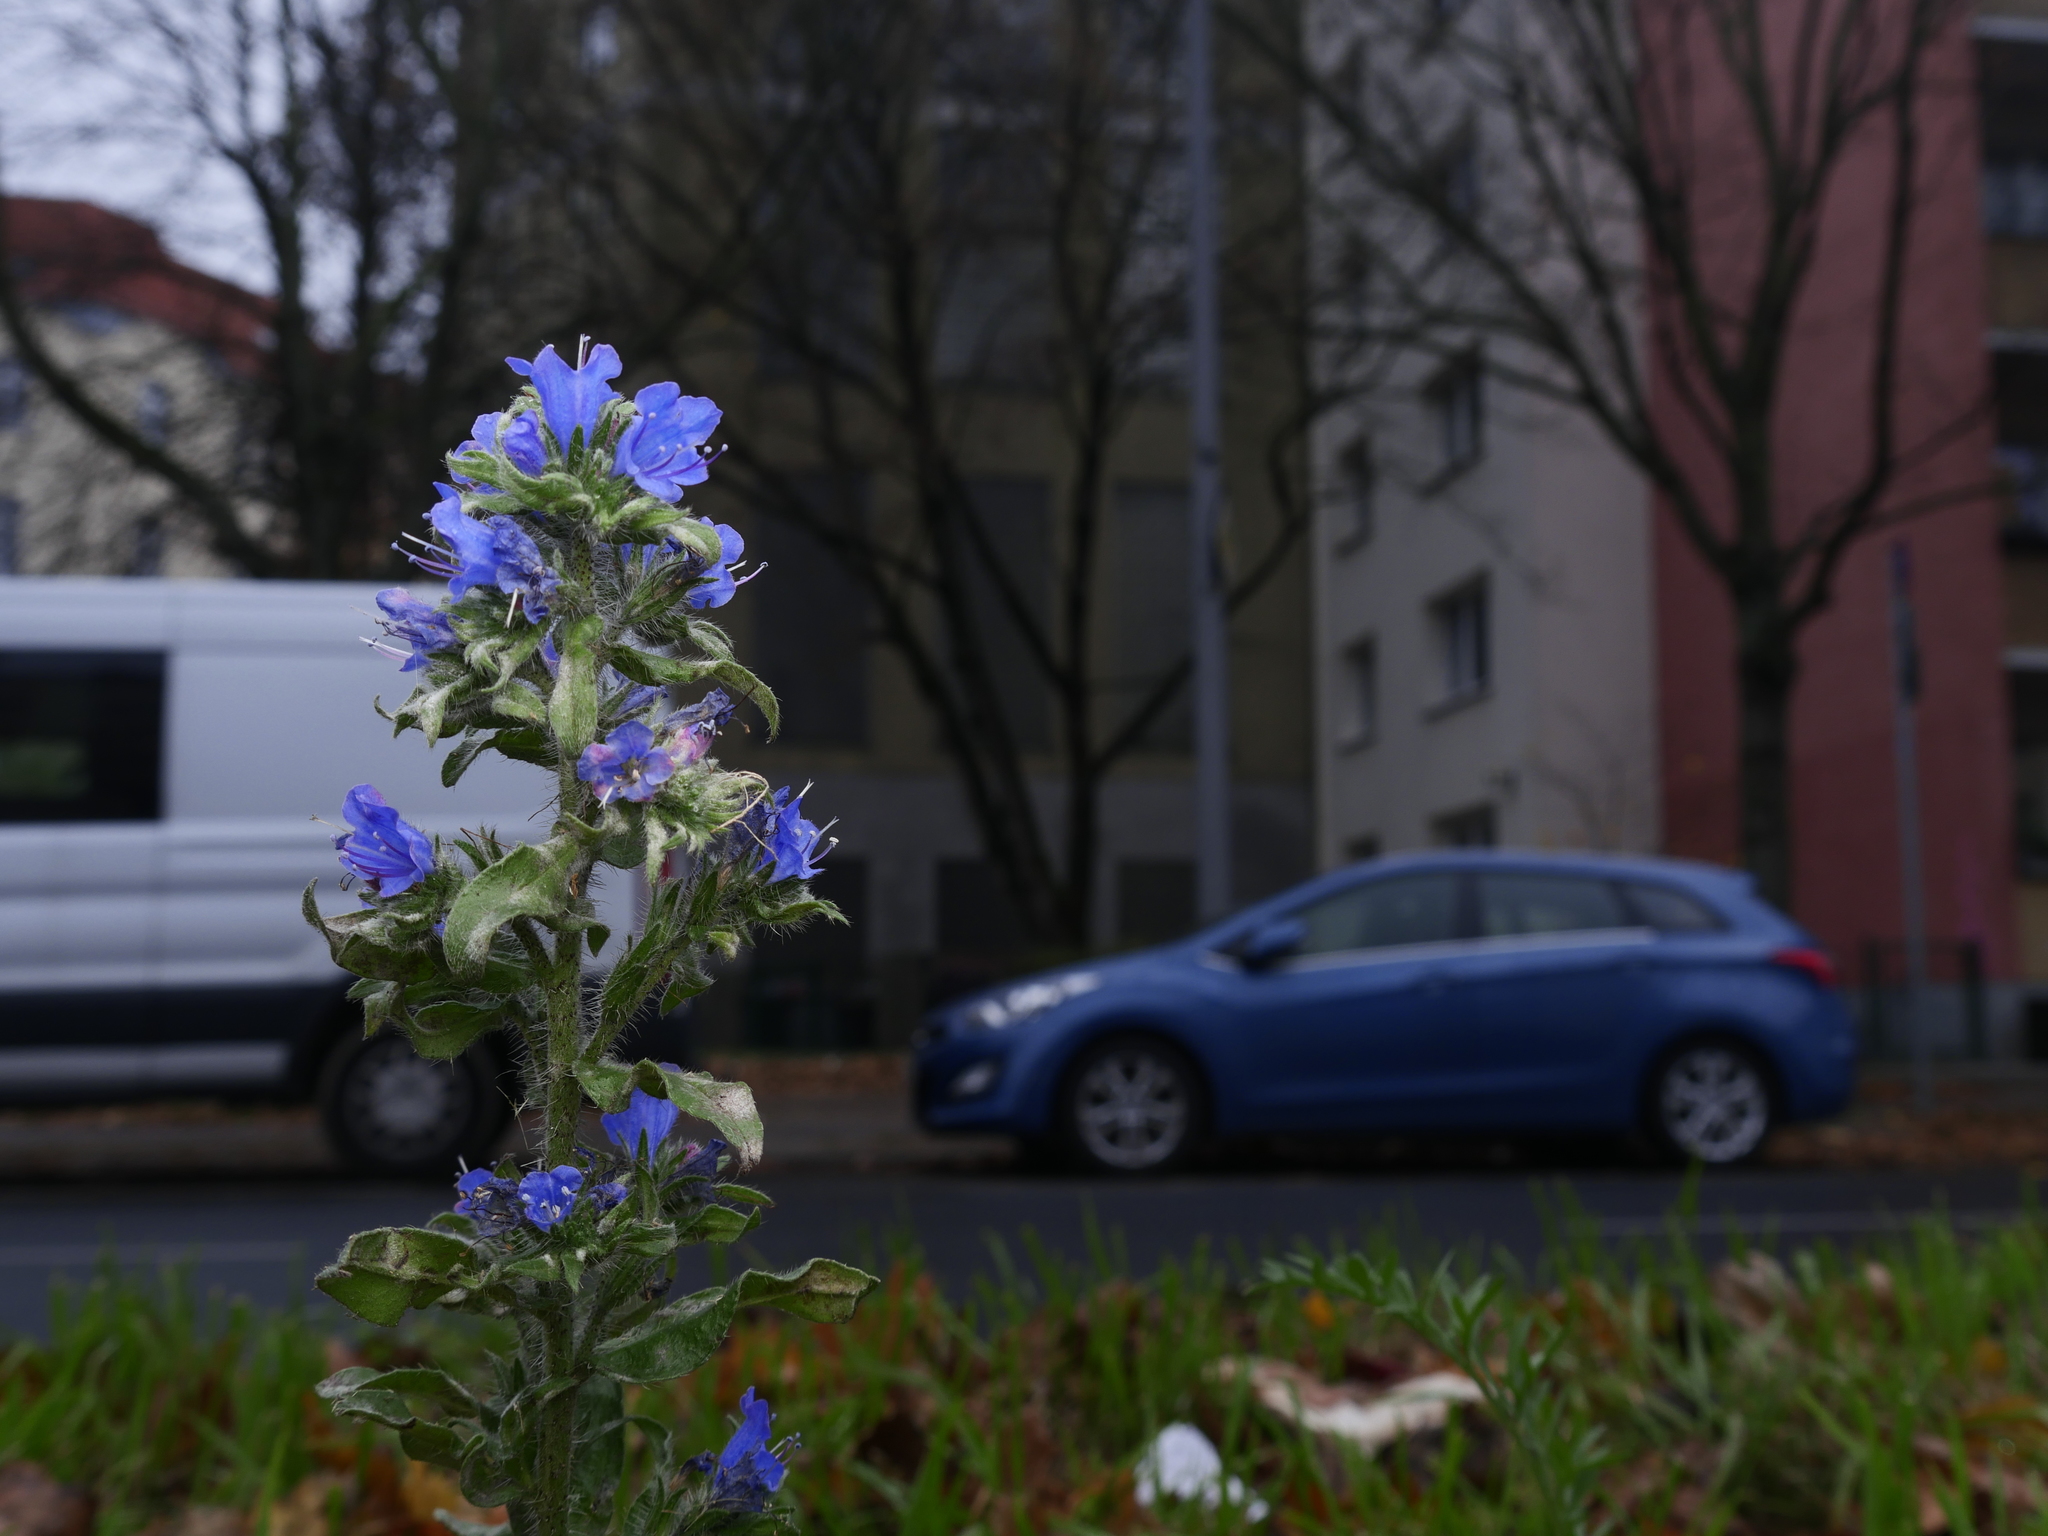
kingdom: Plantae
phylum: Tracheophyta
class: Magnoliopsida
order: Boraginales
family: Boraginaceae
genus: Echium
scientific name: Echium vulgare
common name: Common viper's bugloss
